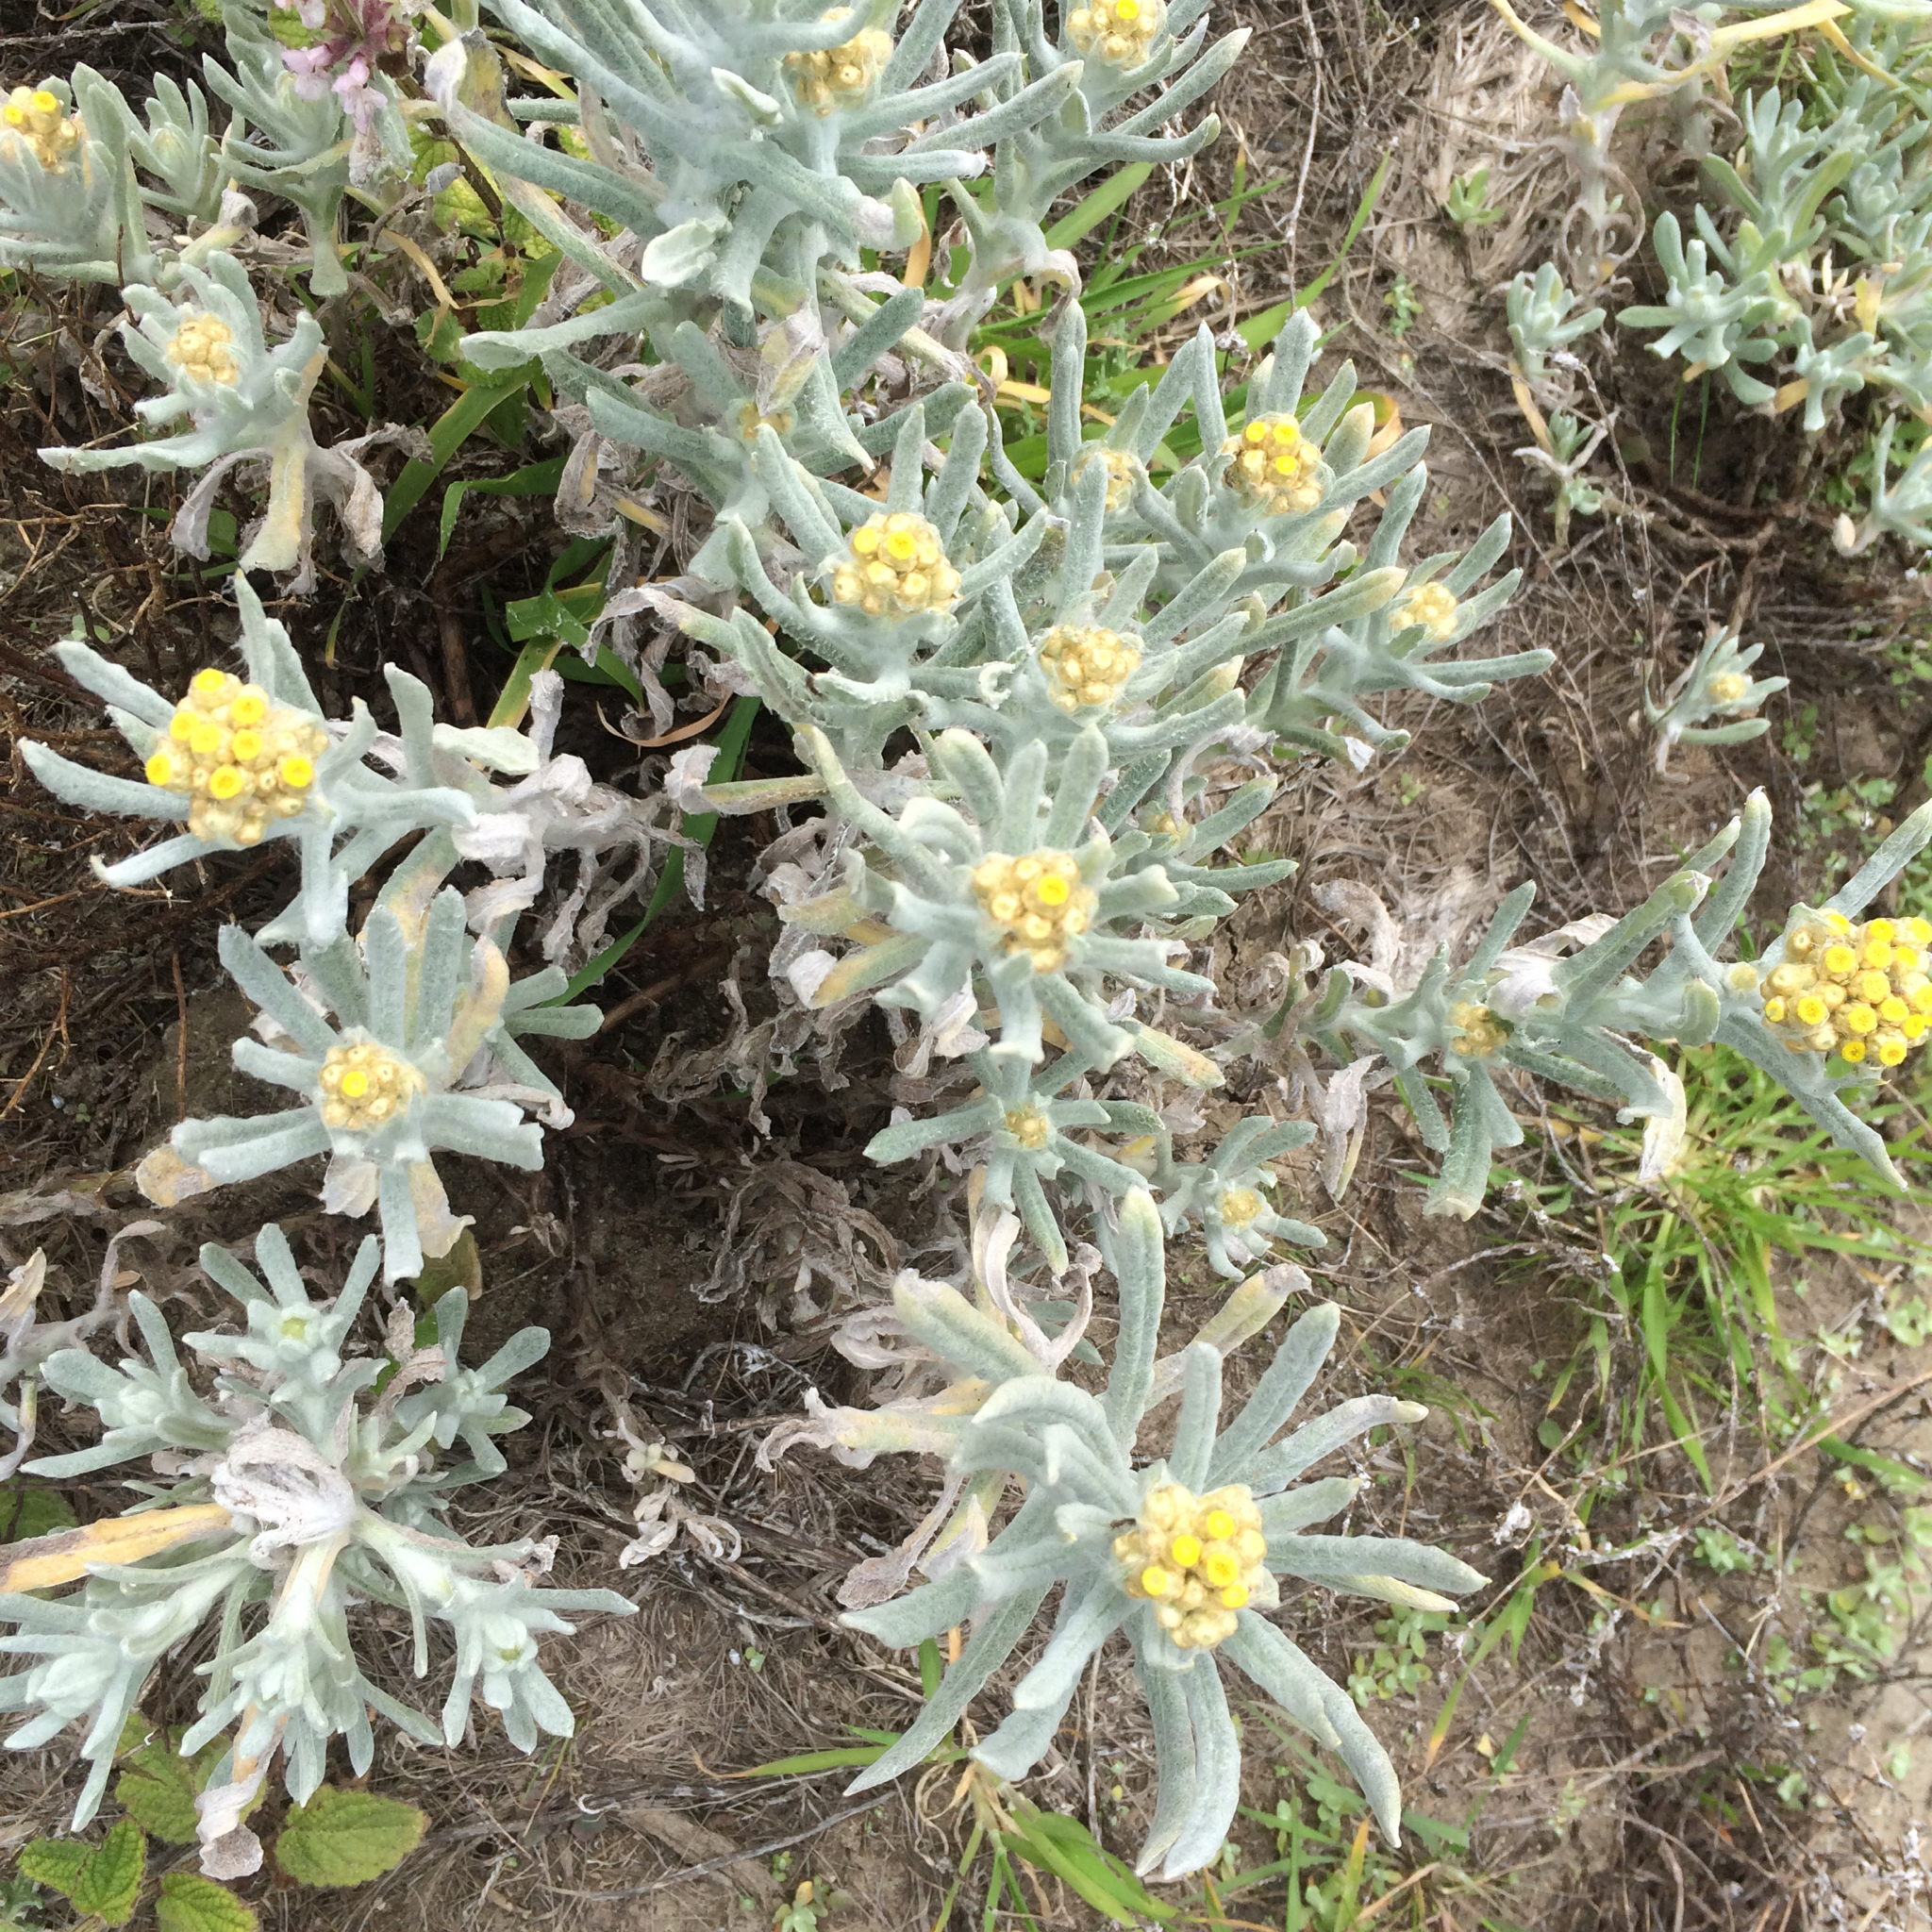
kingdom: Plantae
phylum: Tracheophyta
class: Magnoliopsida
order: Asterales
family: Asteraceae
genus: Pseudognaphalium
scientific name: Pseudognaphalium stramineum
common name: Cotton-batting-plant
